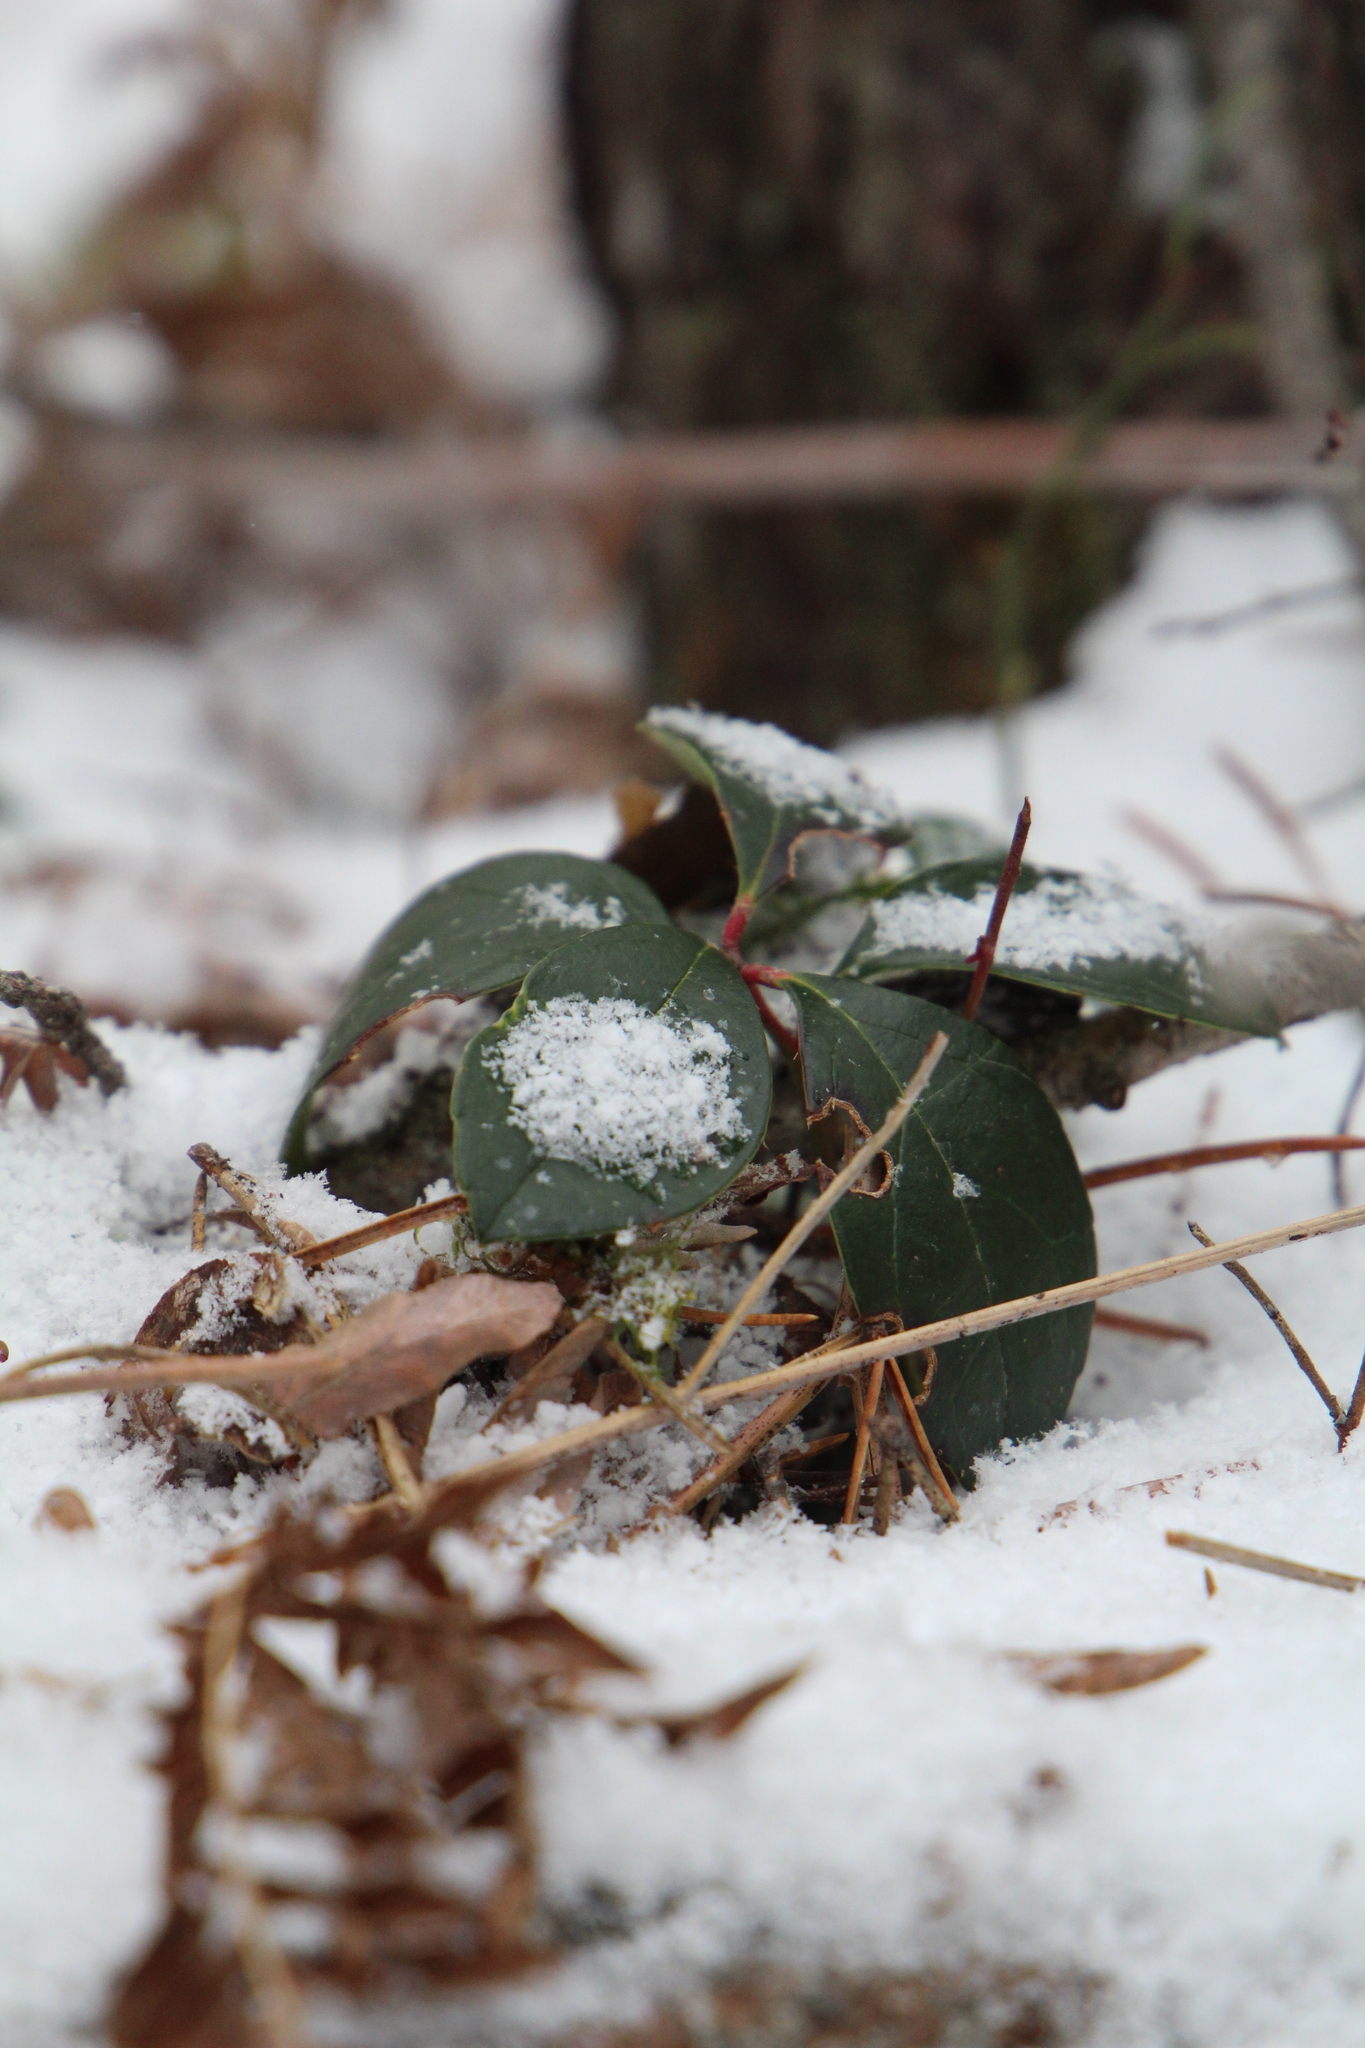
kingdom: Plantae
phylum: Tracheophyta
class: Magnoliopsida
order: Ericales
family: Ericaceae
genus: Gaultheria
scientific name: Gaultheria procumbens
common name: Checkerberry
